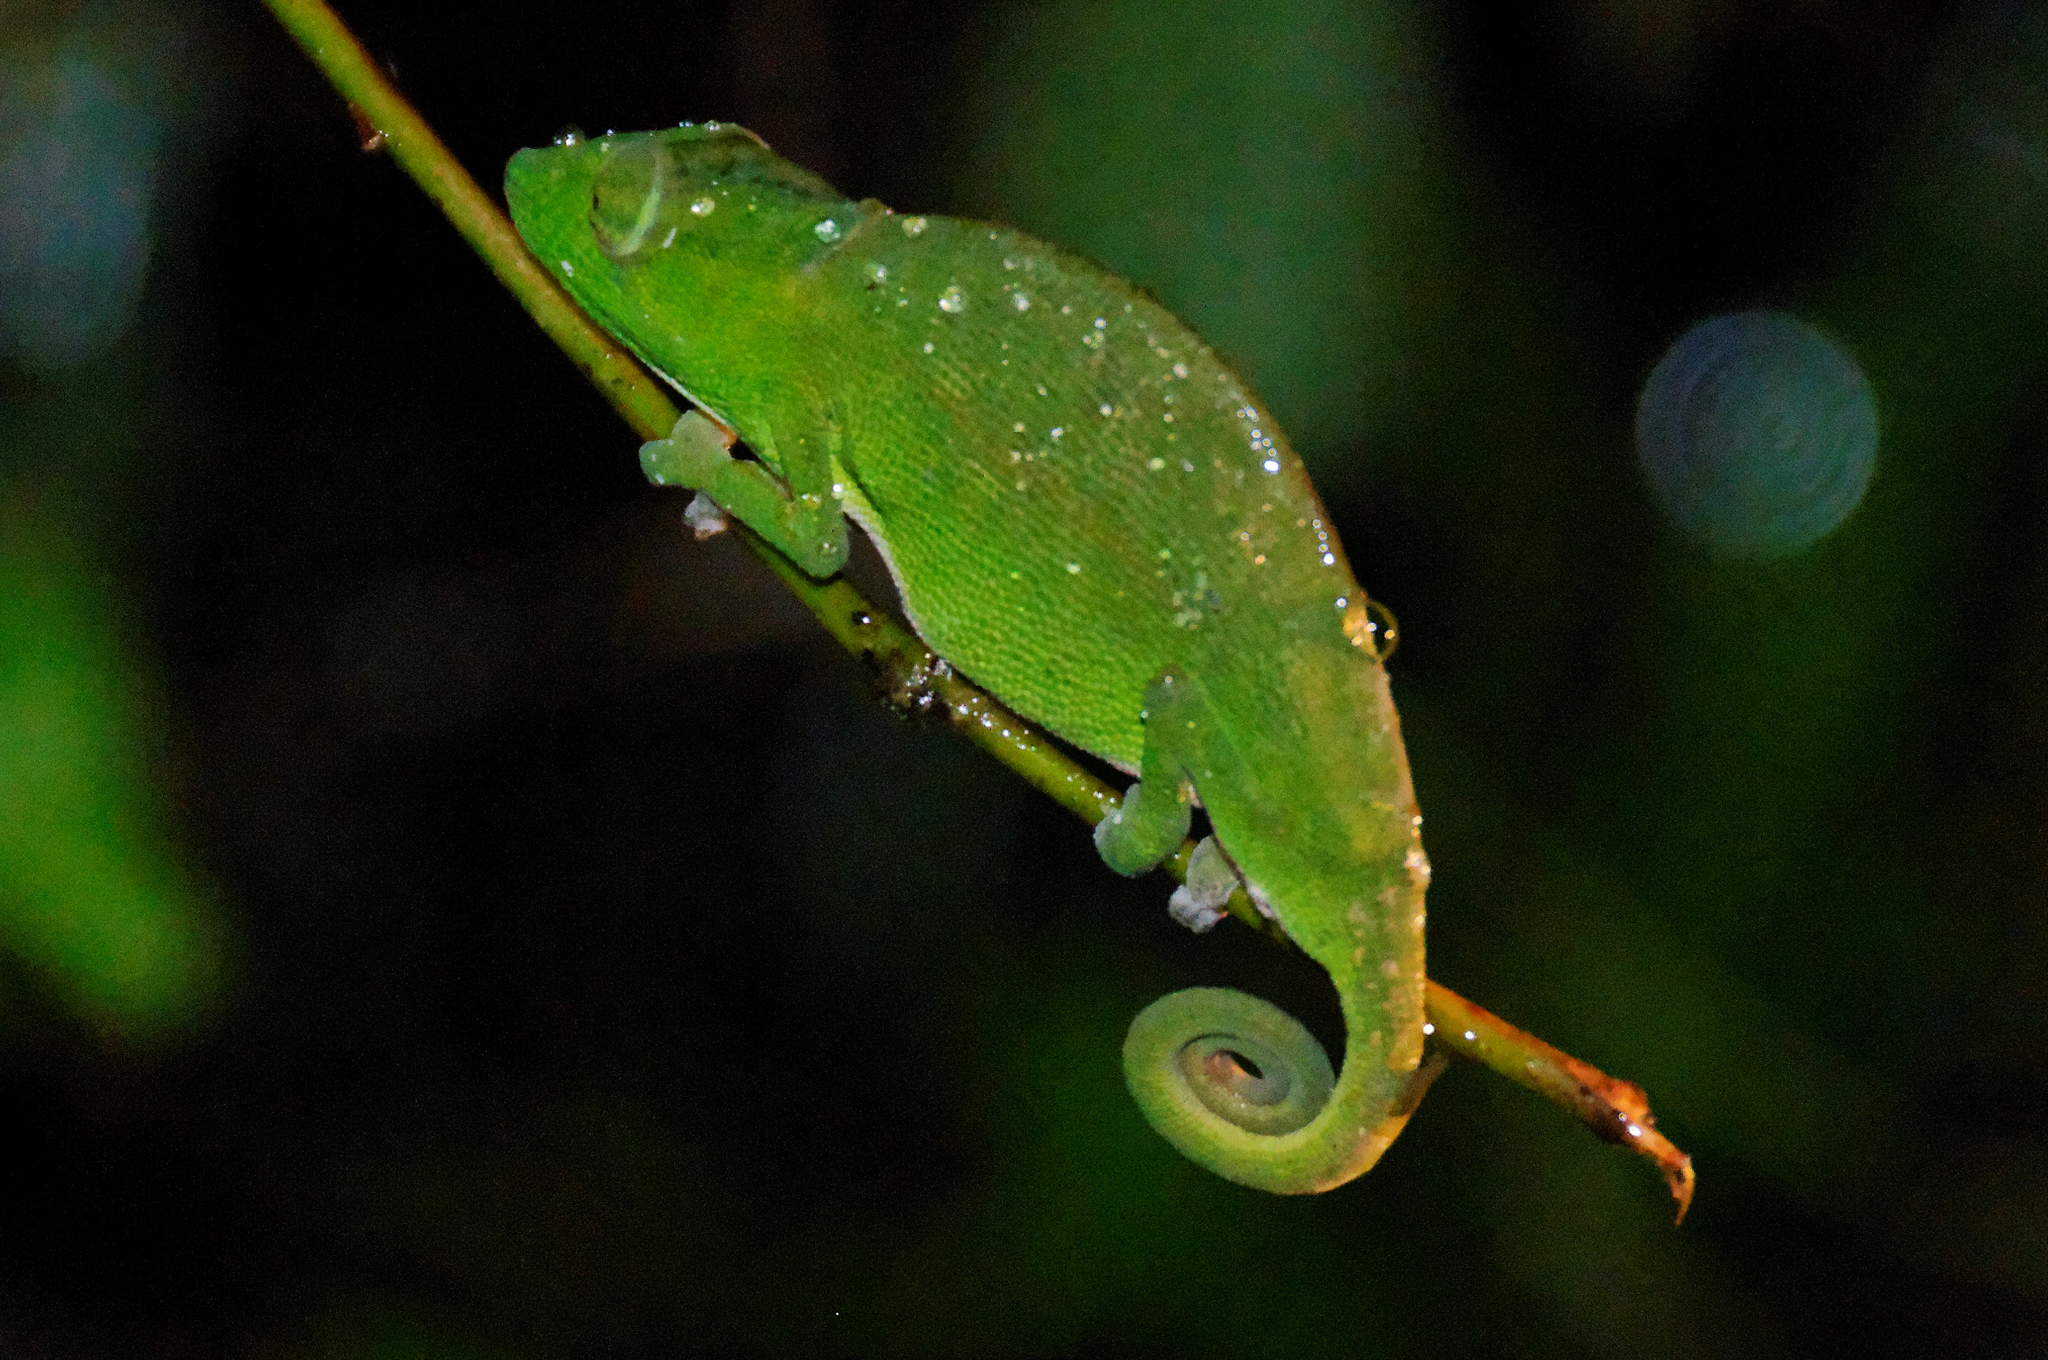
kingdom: Animalia
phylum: Chordata
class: Squamata
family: Chamaeleonidae
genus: Calumma
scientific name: Calumma glawi
